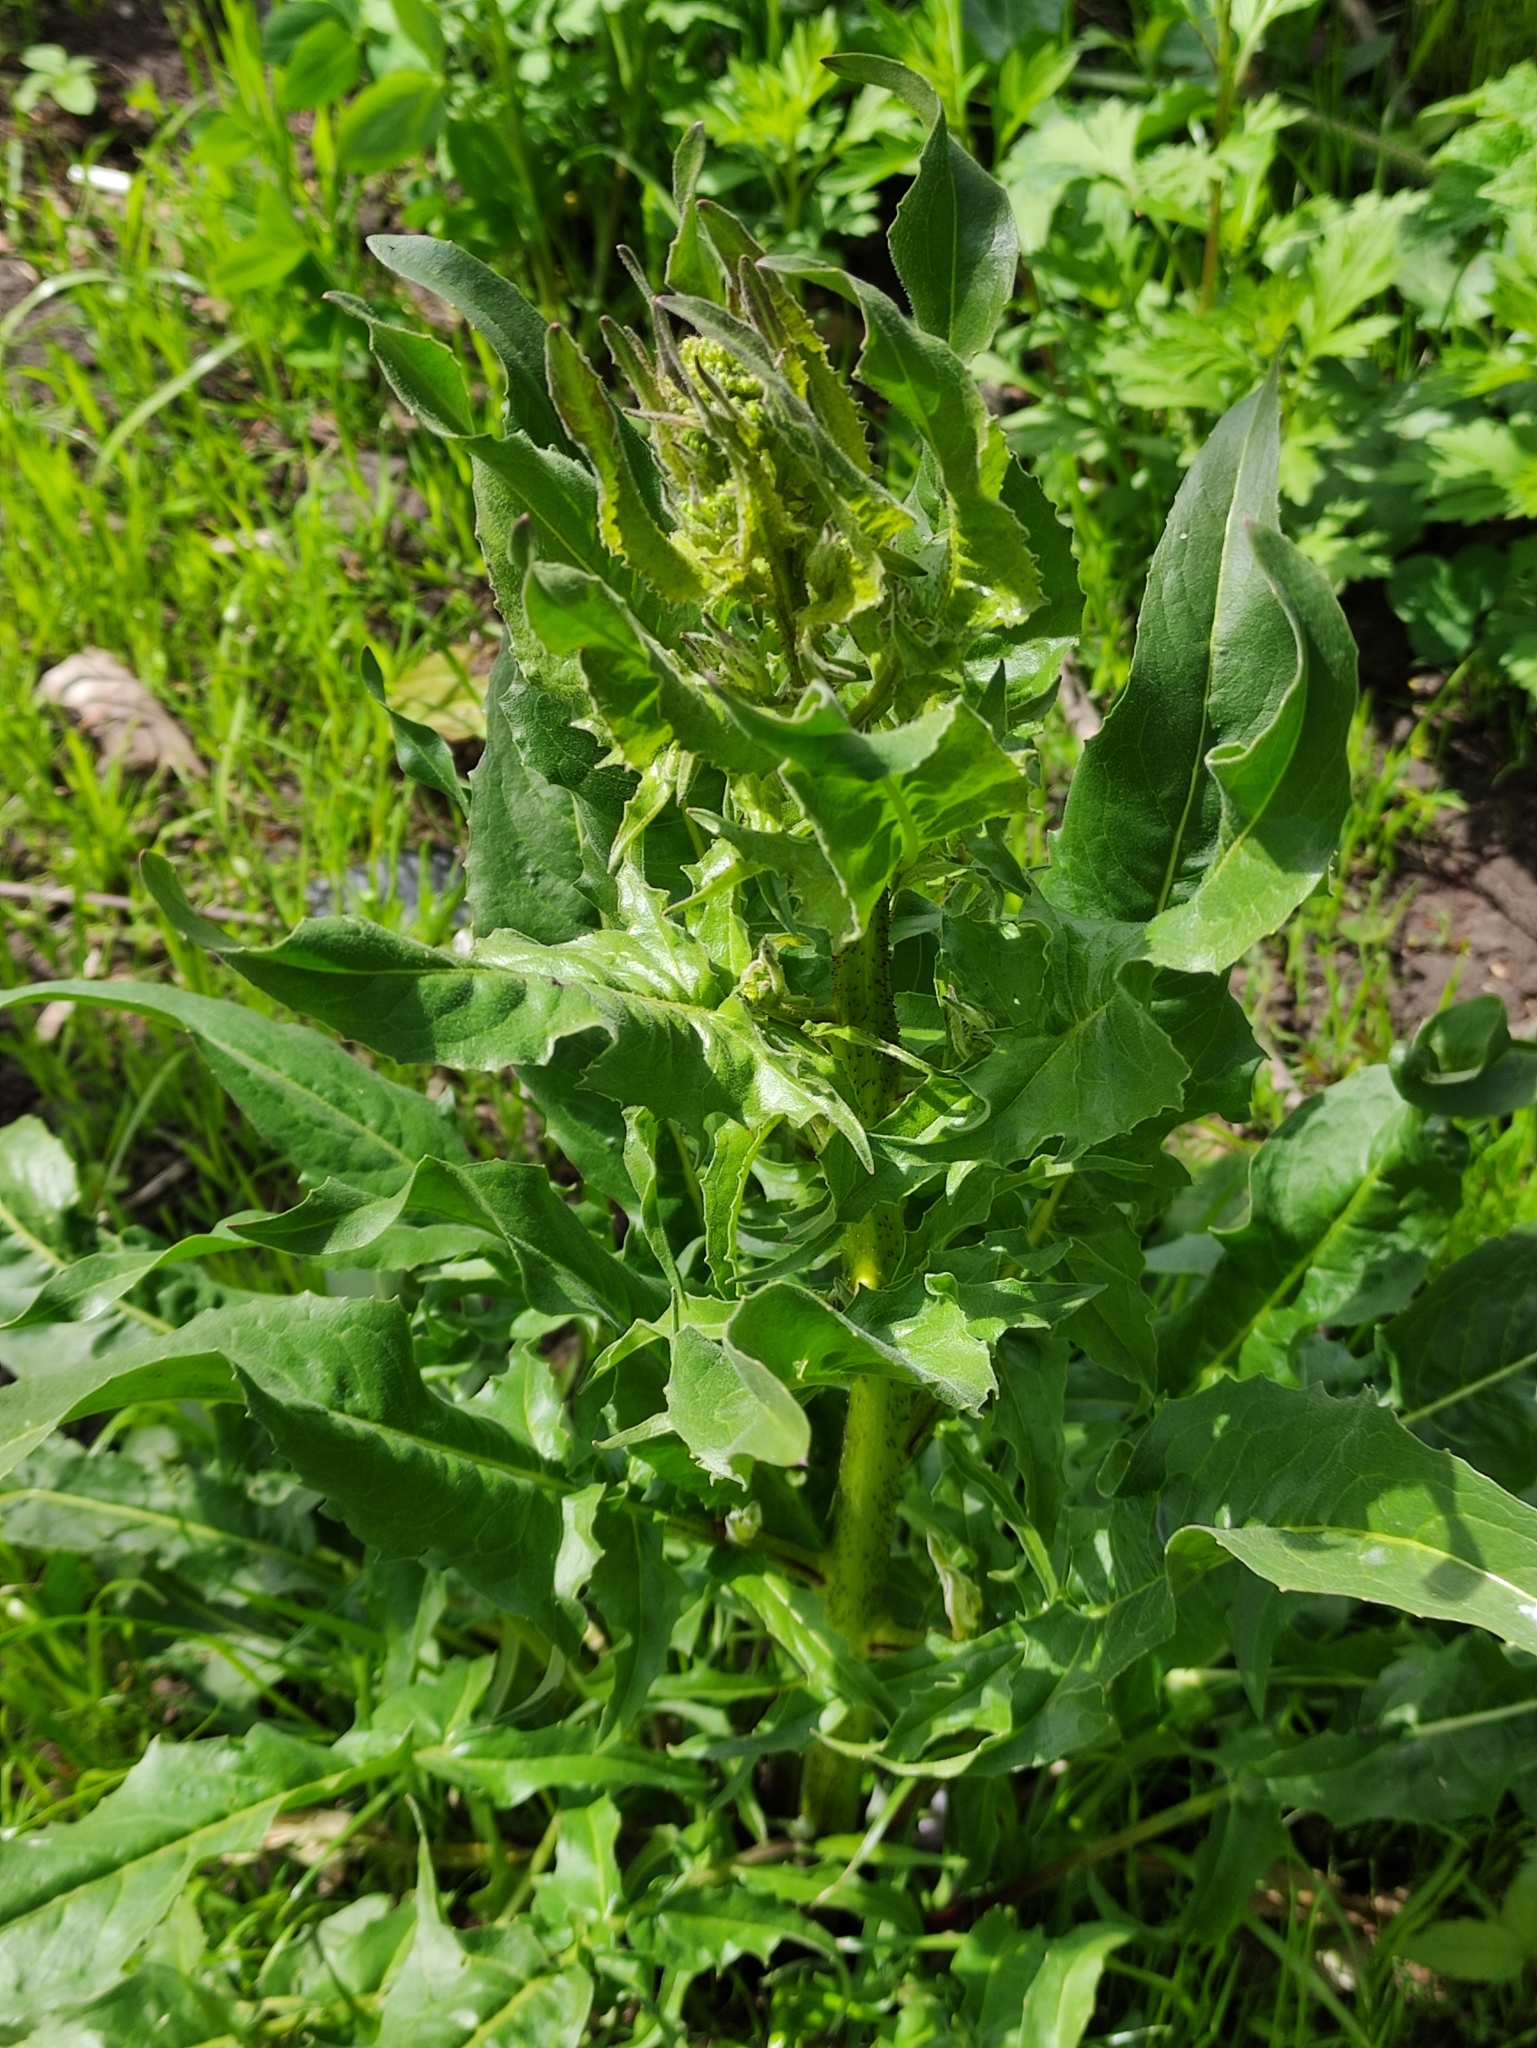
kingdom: Plantae
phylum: Tracheophyta
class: Magnoliopsida
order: Brassicales
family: Brassicaceae
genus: Bunias
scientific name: Bunias orientalis
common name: Warty-cabbage
